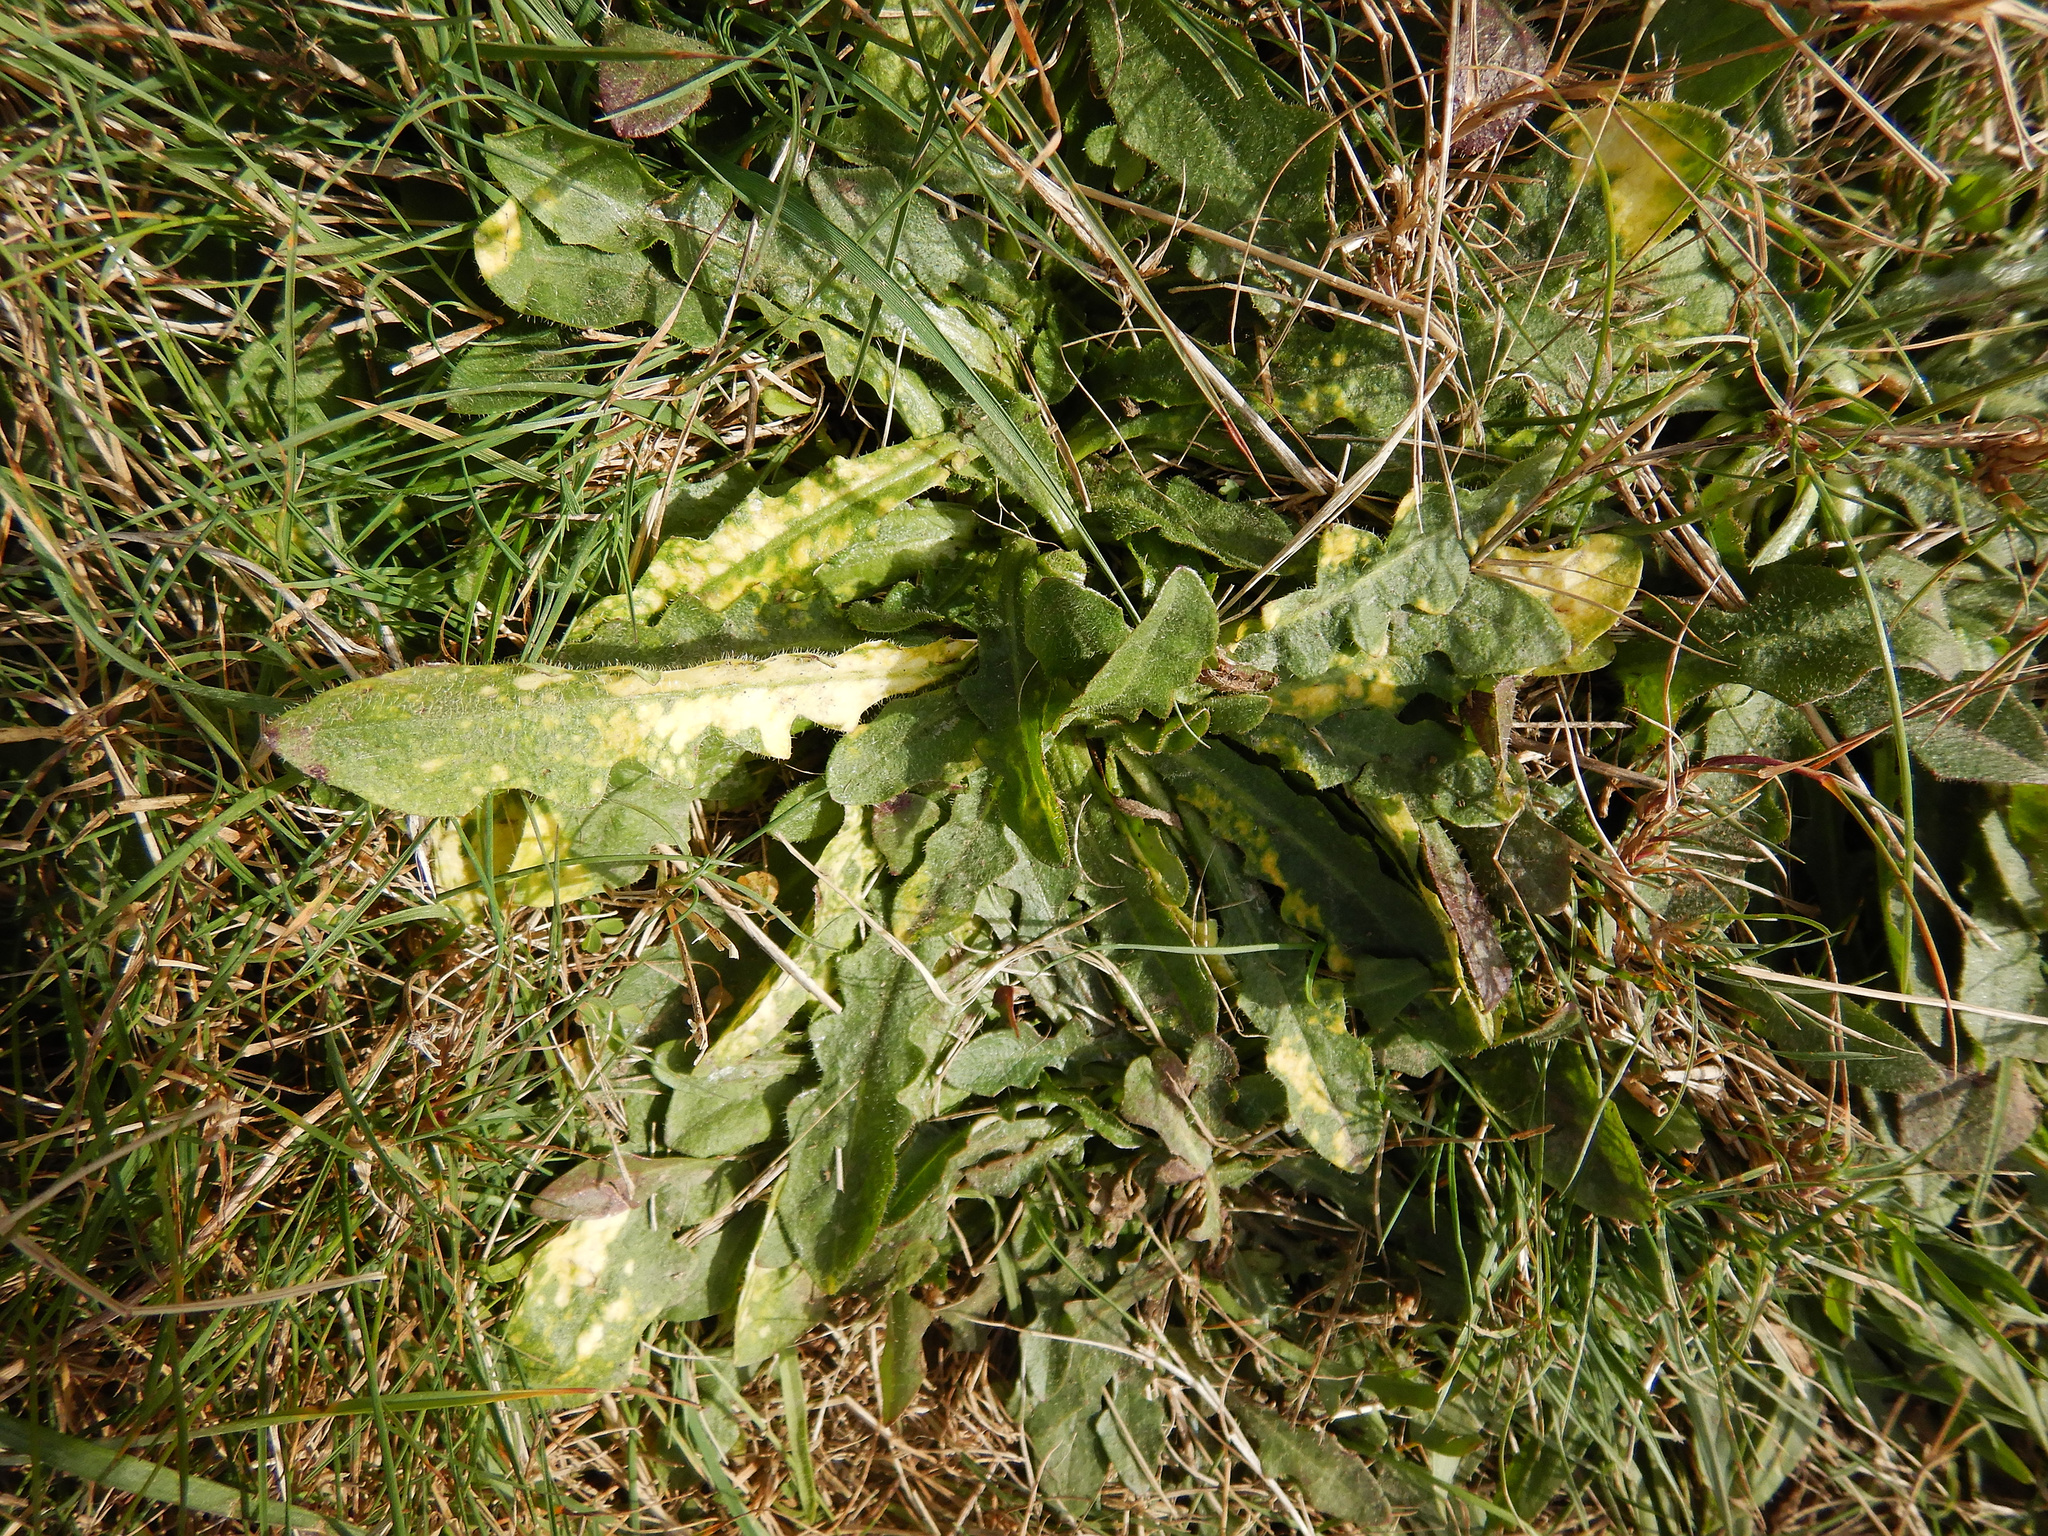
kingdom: Plantae
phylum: Tracheophyta
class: Magnoliopsida
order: Asterales
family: Asteraceae
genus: Hypochaeris
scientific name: Hypochaeris radicata
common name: Flatweed
